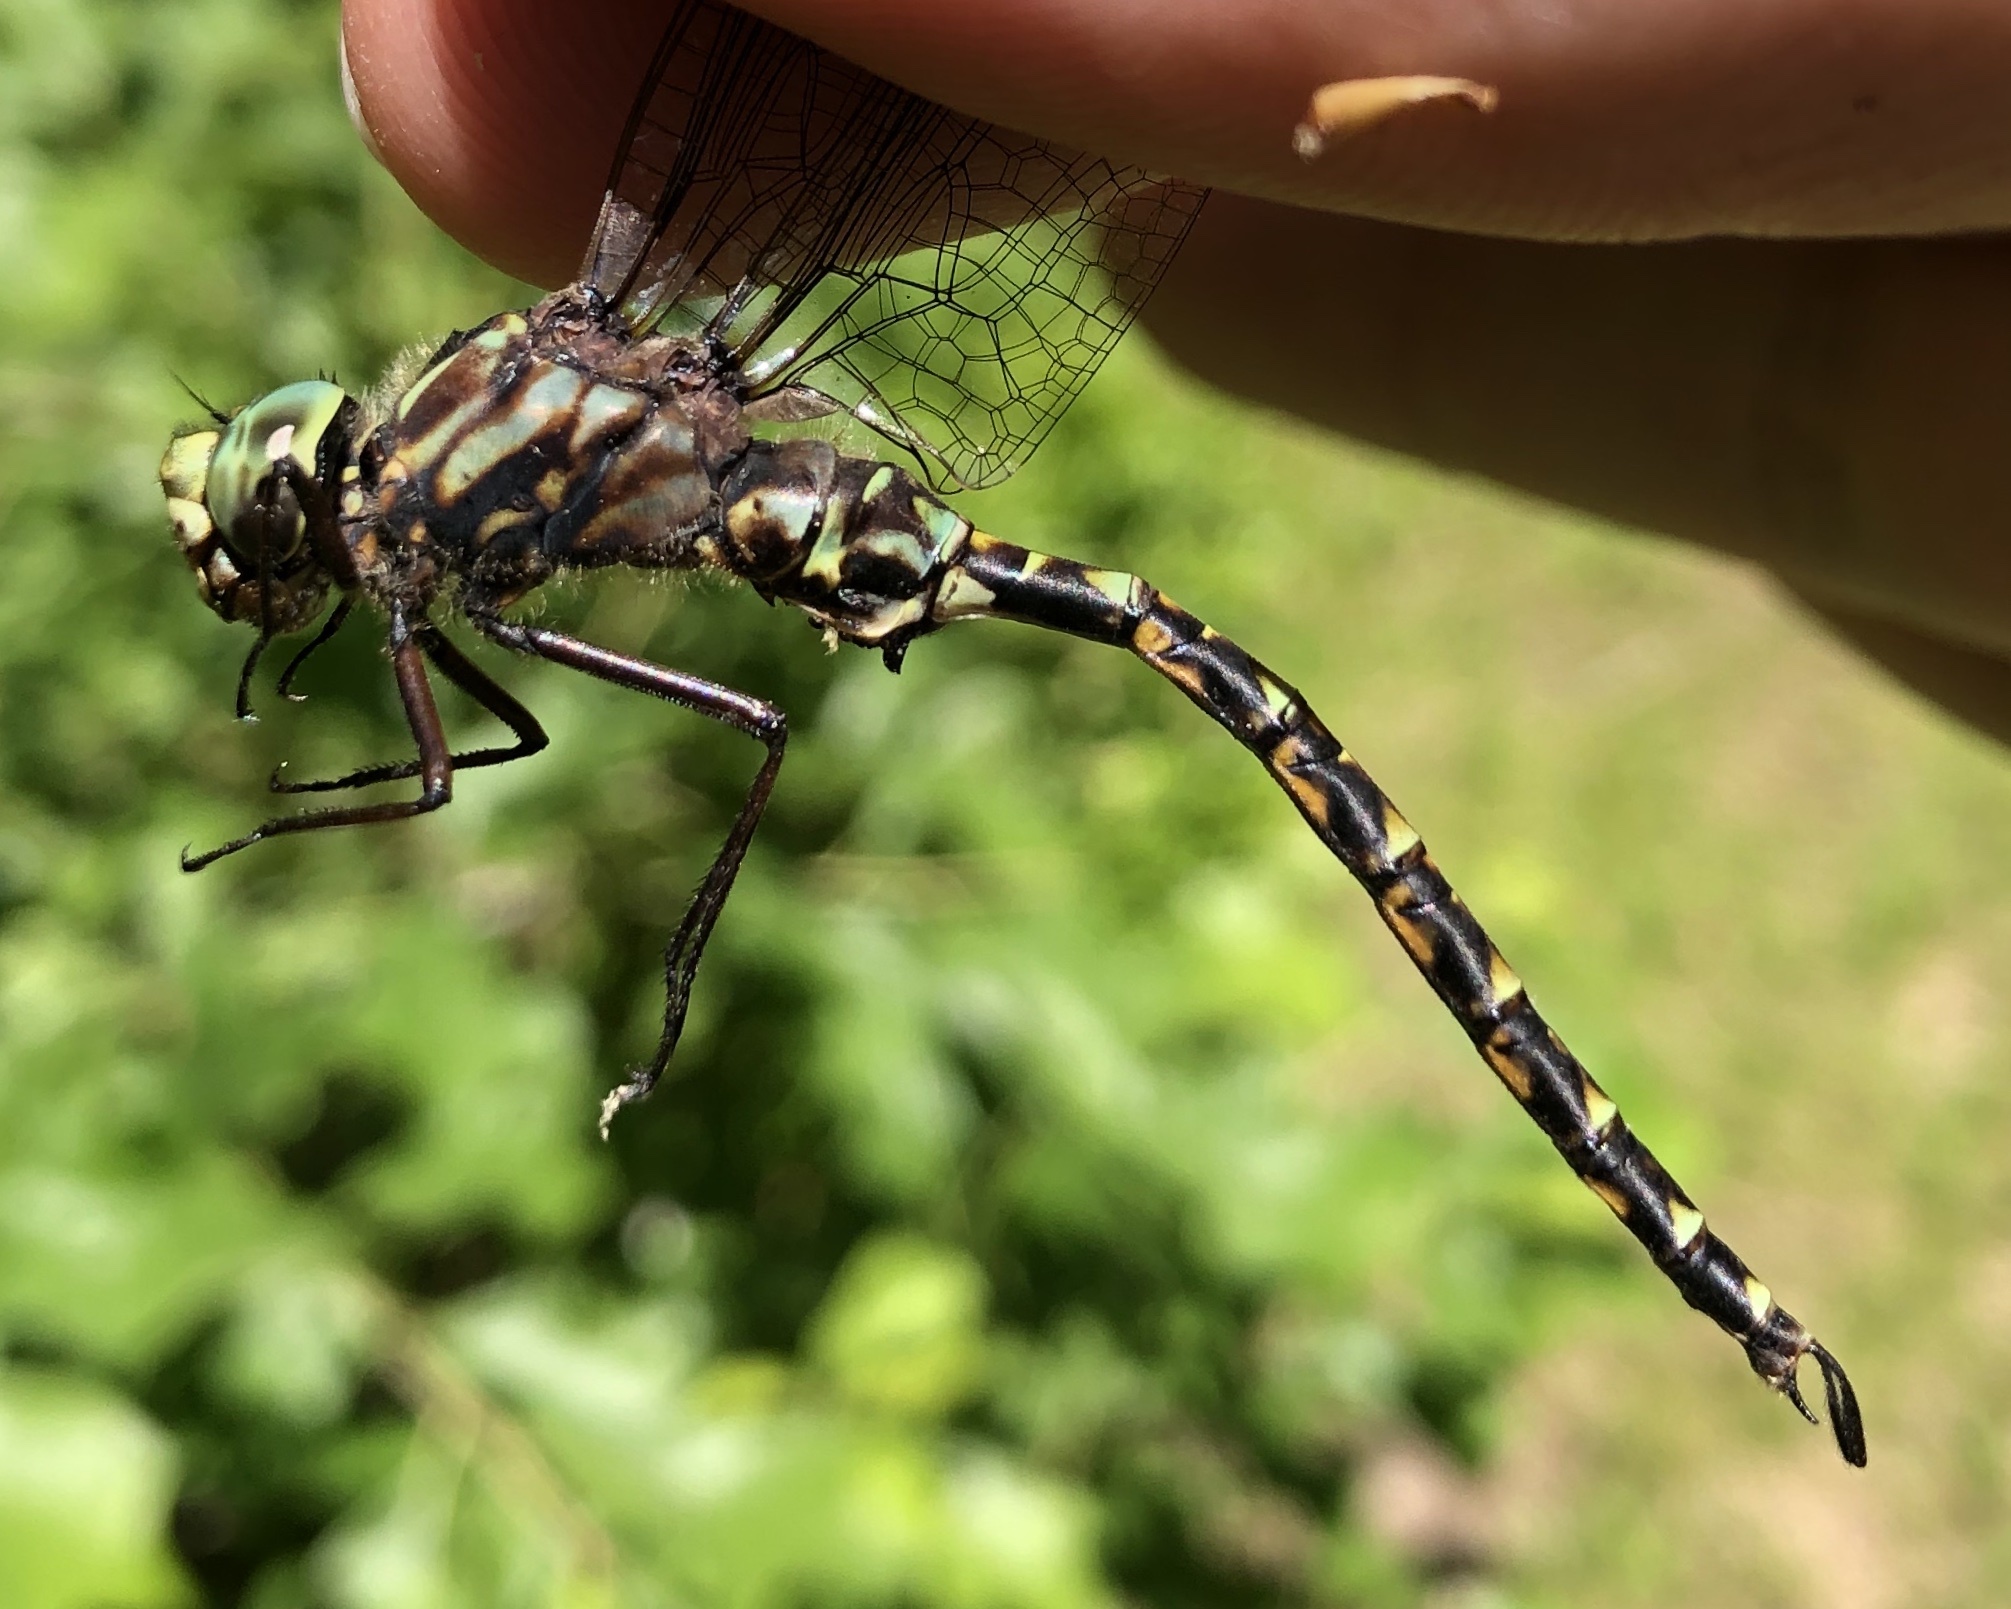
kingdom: Animalia
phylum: Arthropoda
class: Insecta
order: Odonata
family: Aeshnidae
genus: Gomphaeschna
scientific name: Gomphaeschna furcillata
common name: Harlequin darner
